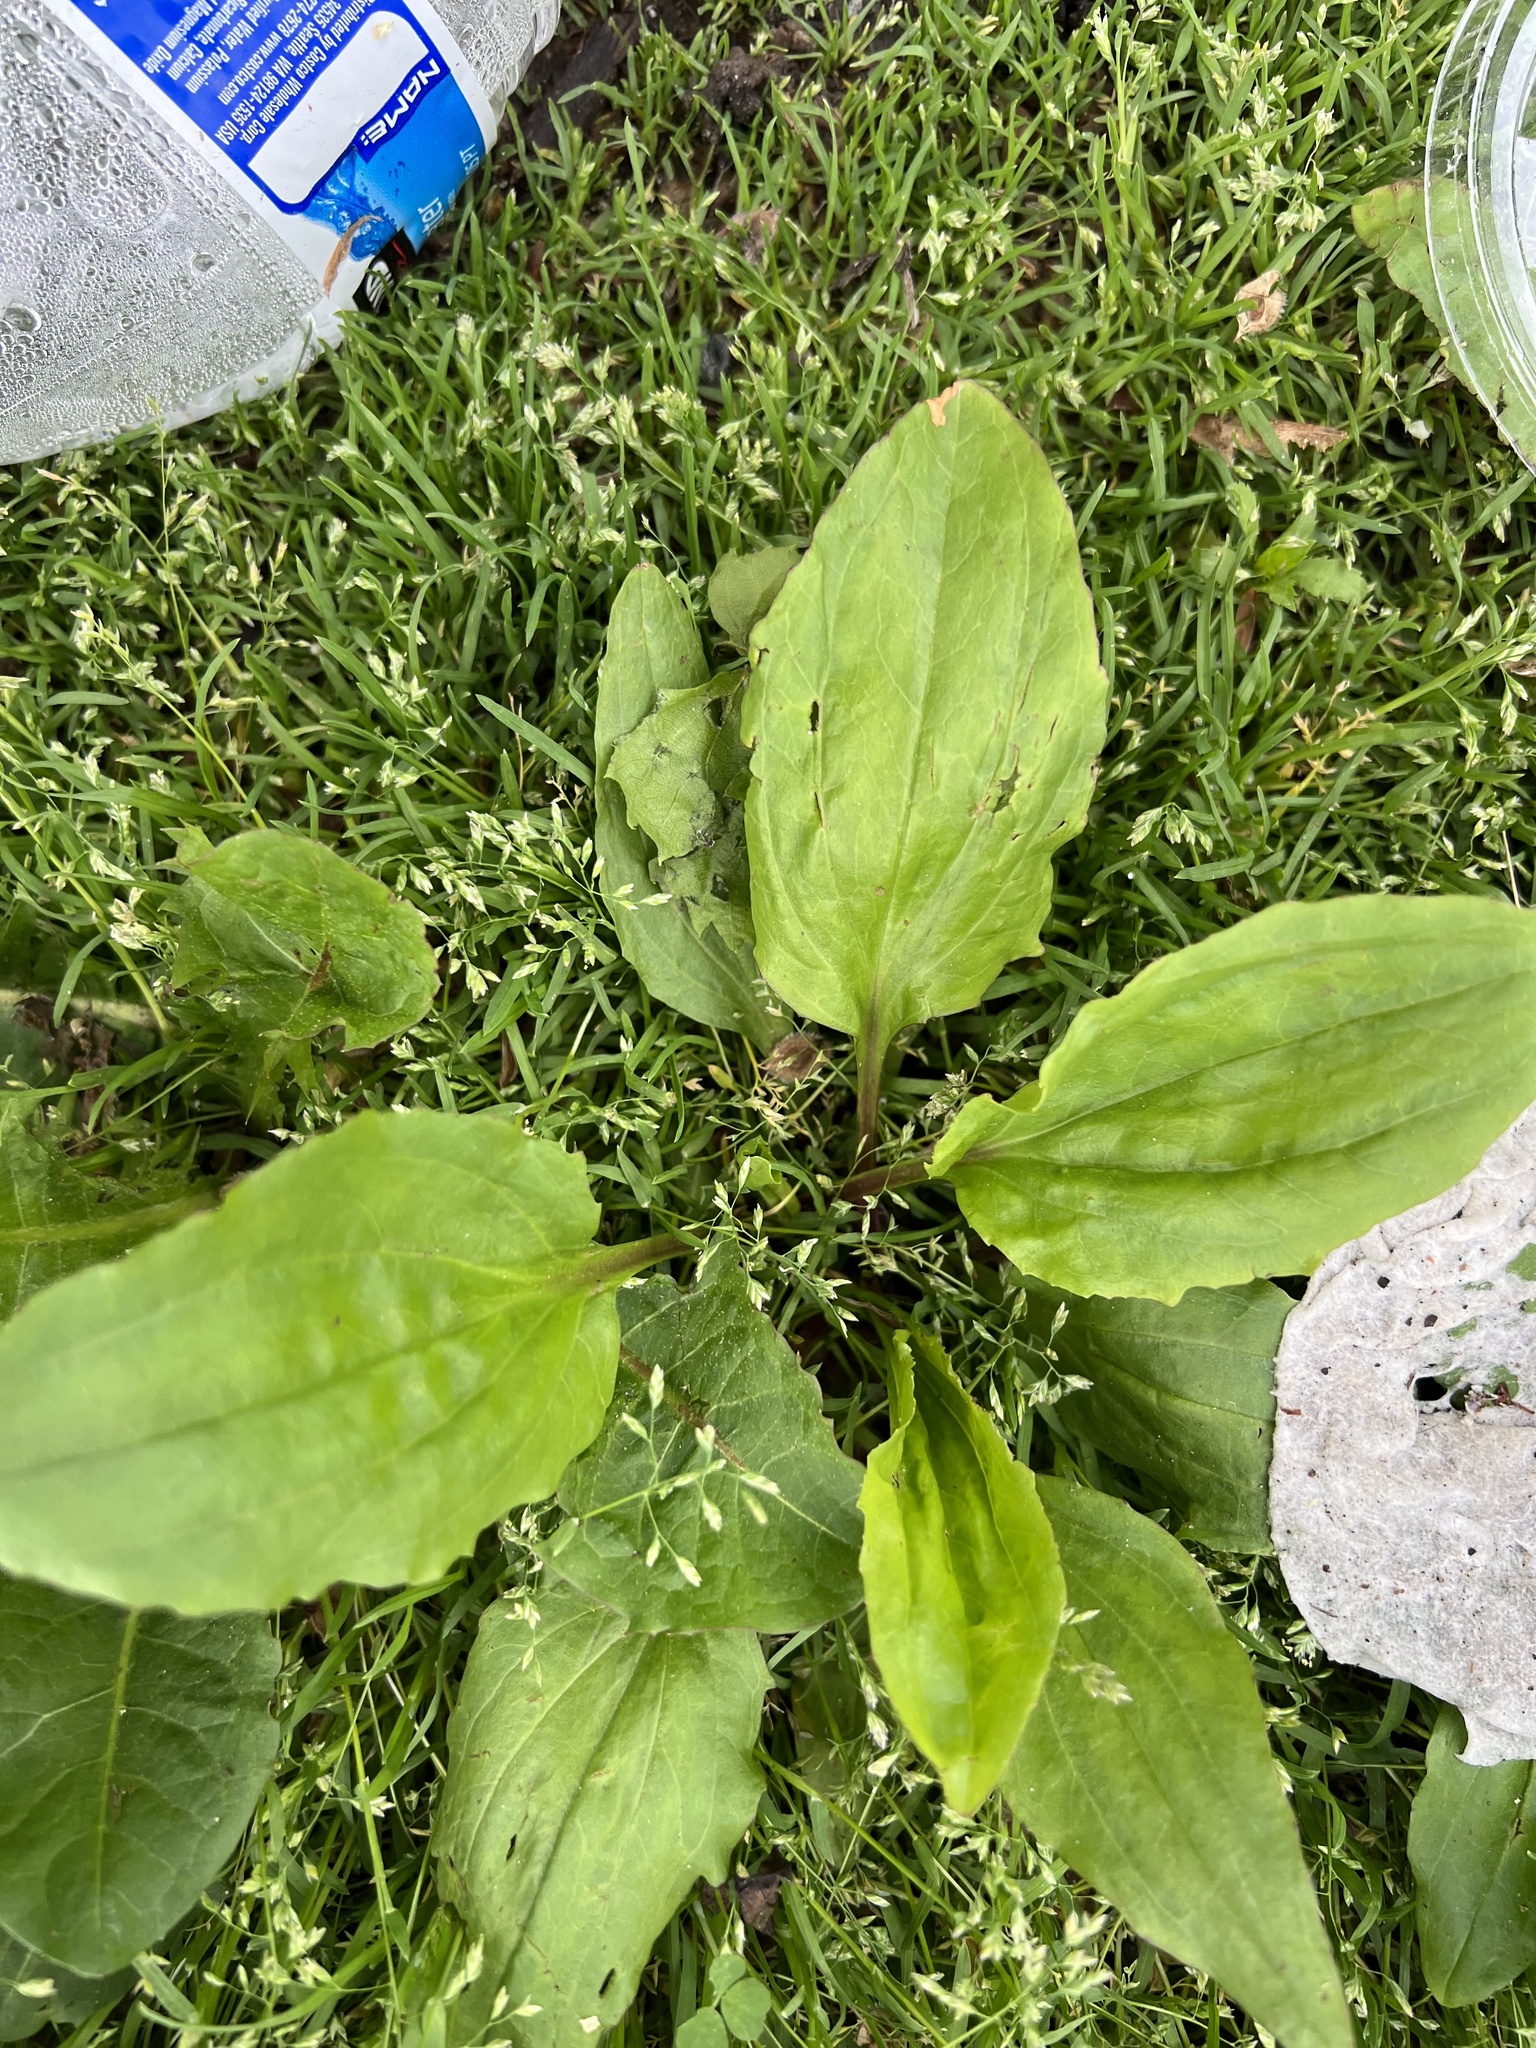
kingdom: Plantae
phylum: Tracheophyta
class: Magnoliopsida
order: Lamiales
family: Plantaginaceae
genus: Plantago
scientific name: Plantago rugelii
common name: American plantain
